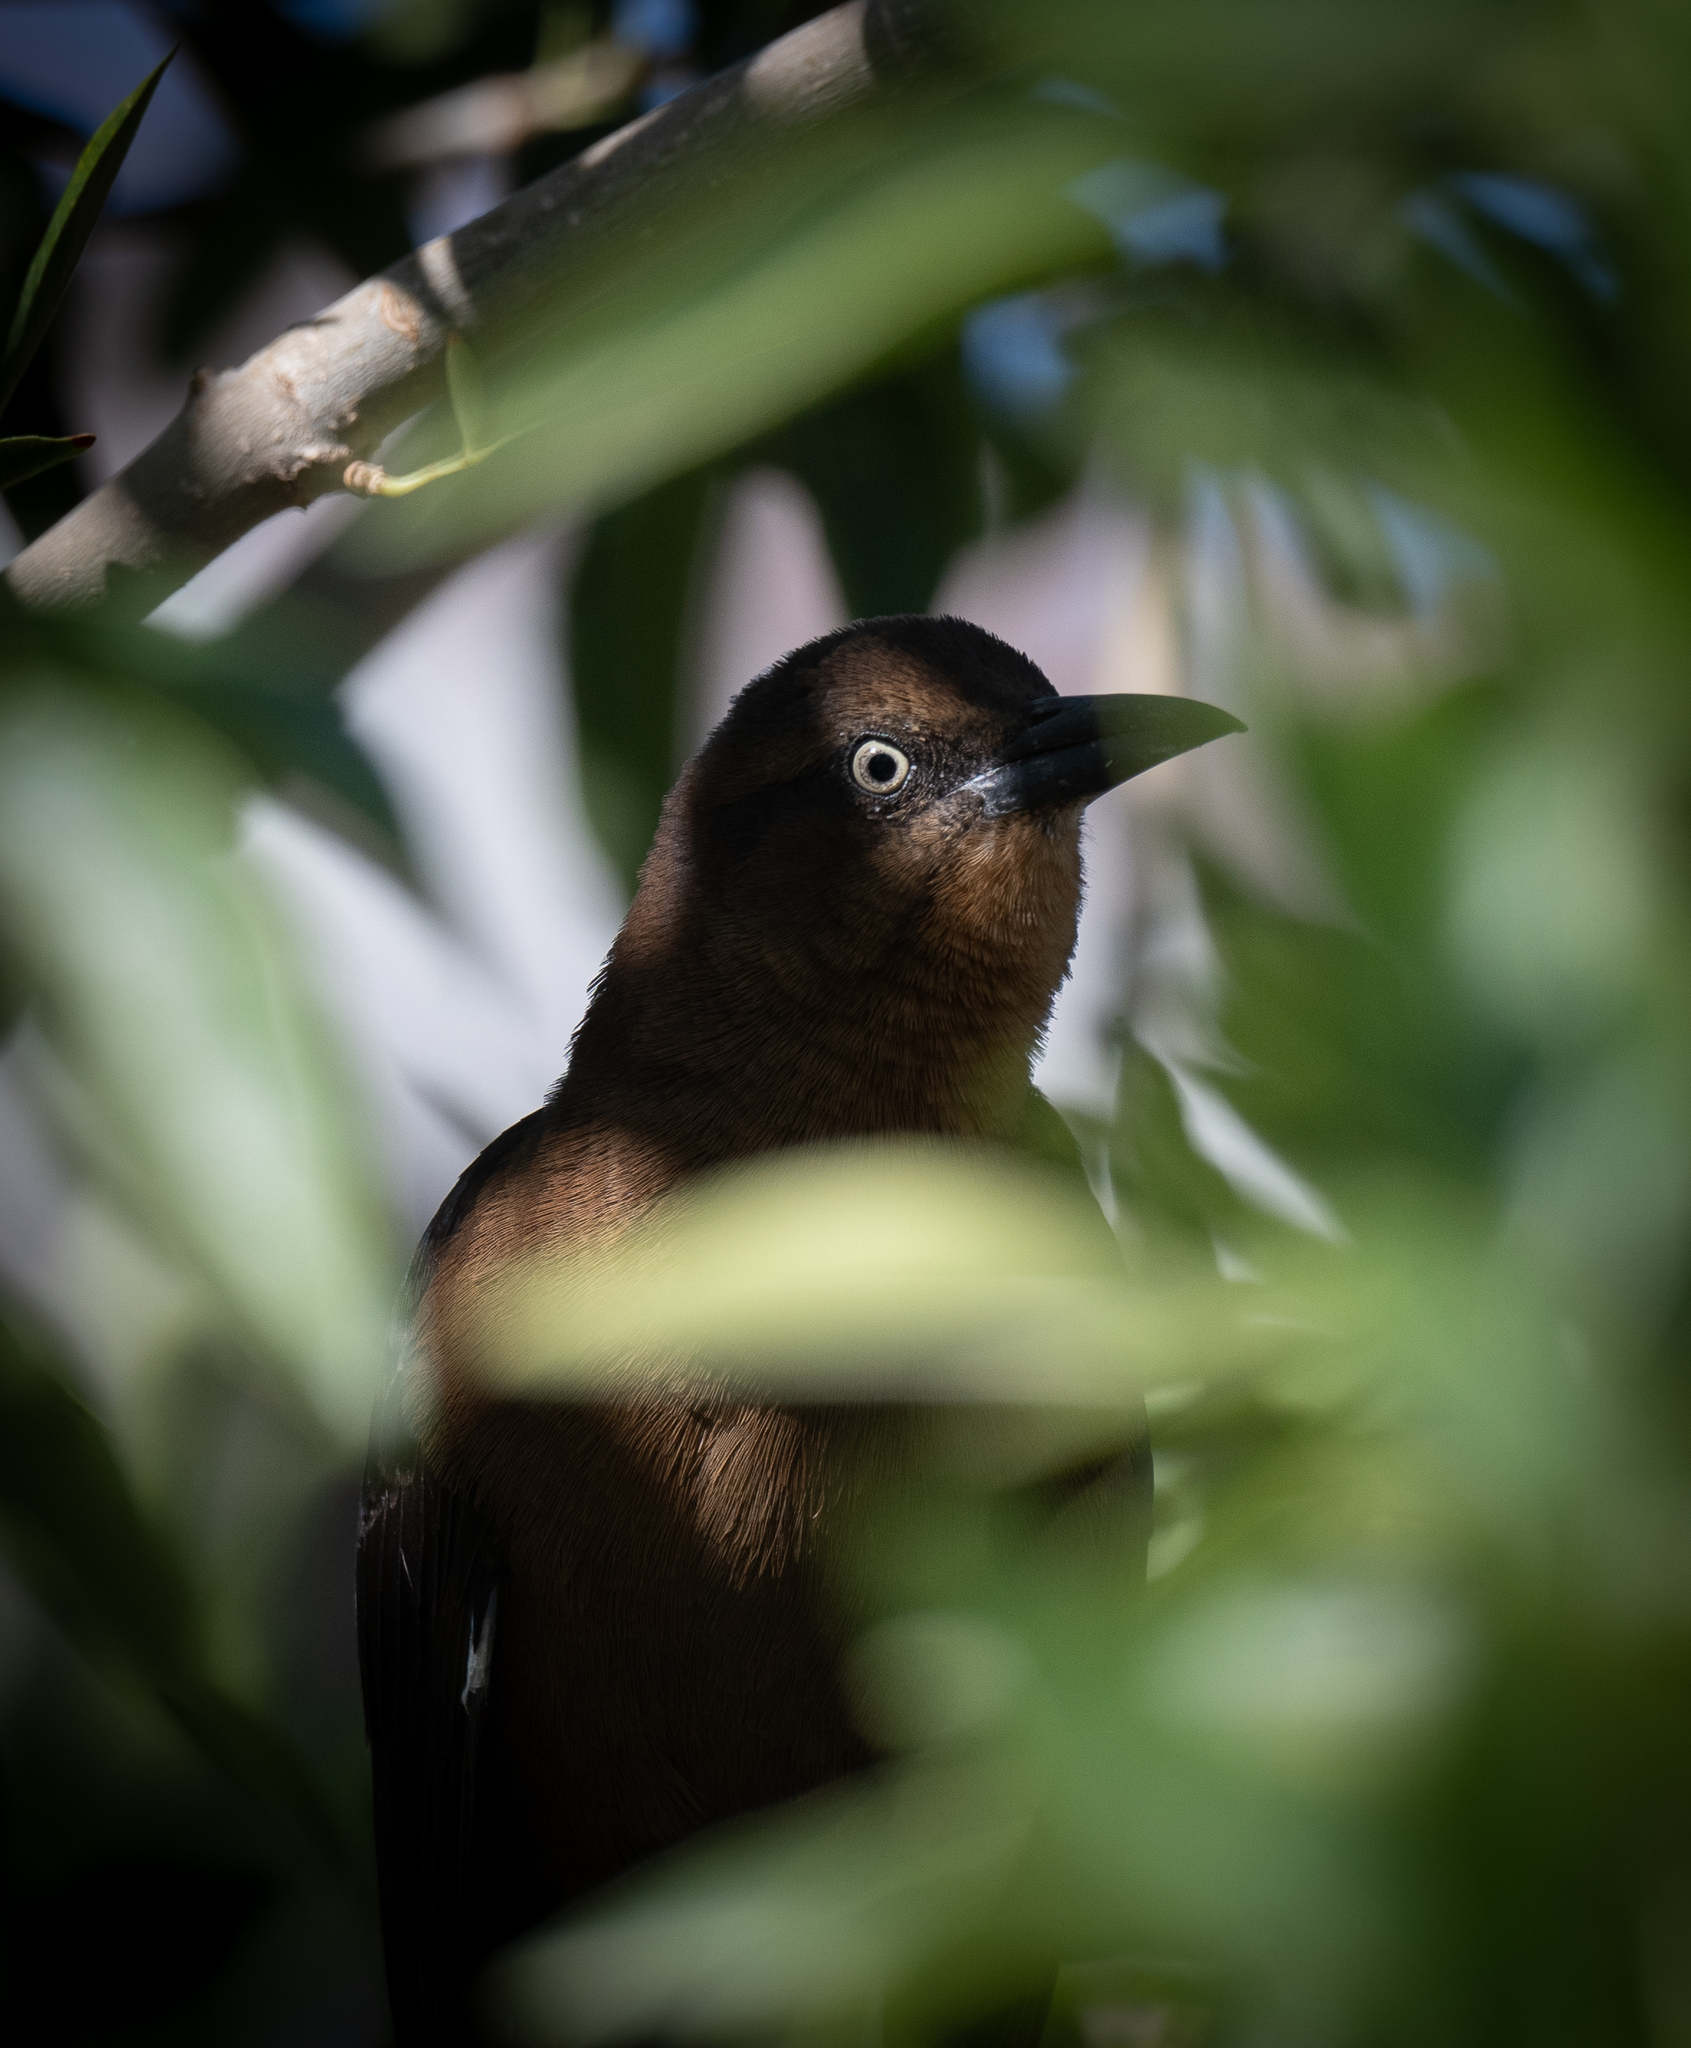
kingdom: Animalia
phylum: Chordata
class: Aves
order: Passeriformes
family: Icteridae
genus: Quiscalus
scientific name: Quiscalus mexicanus
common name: Great-tailed grackle
